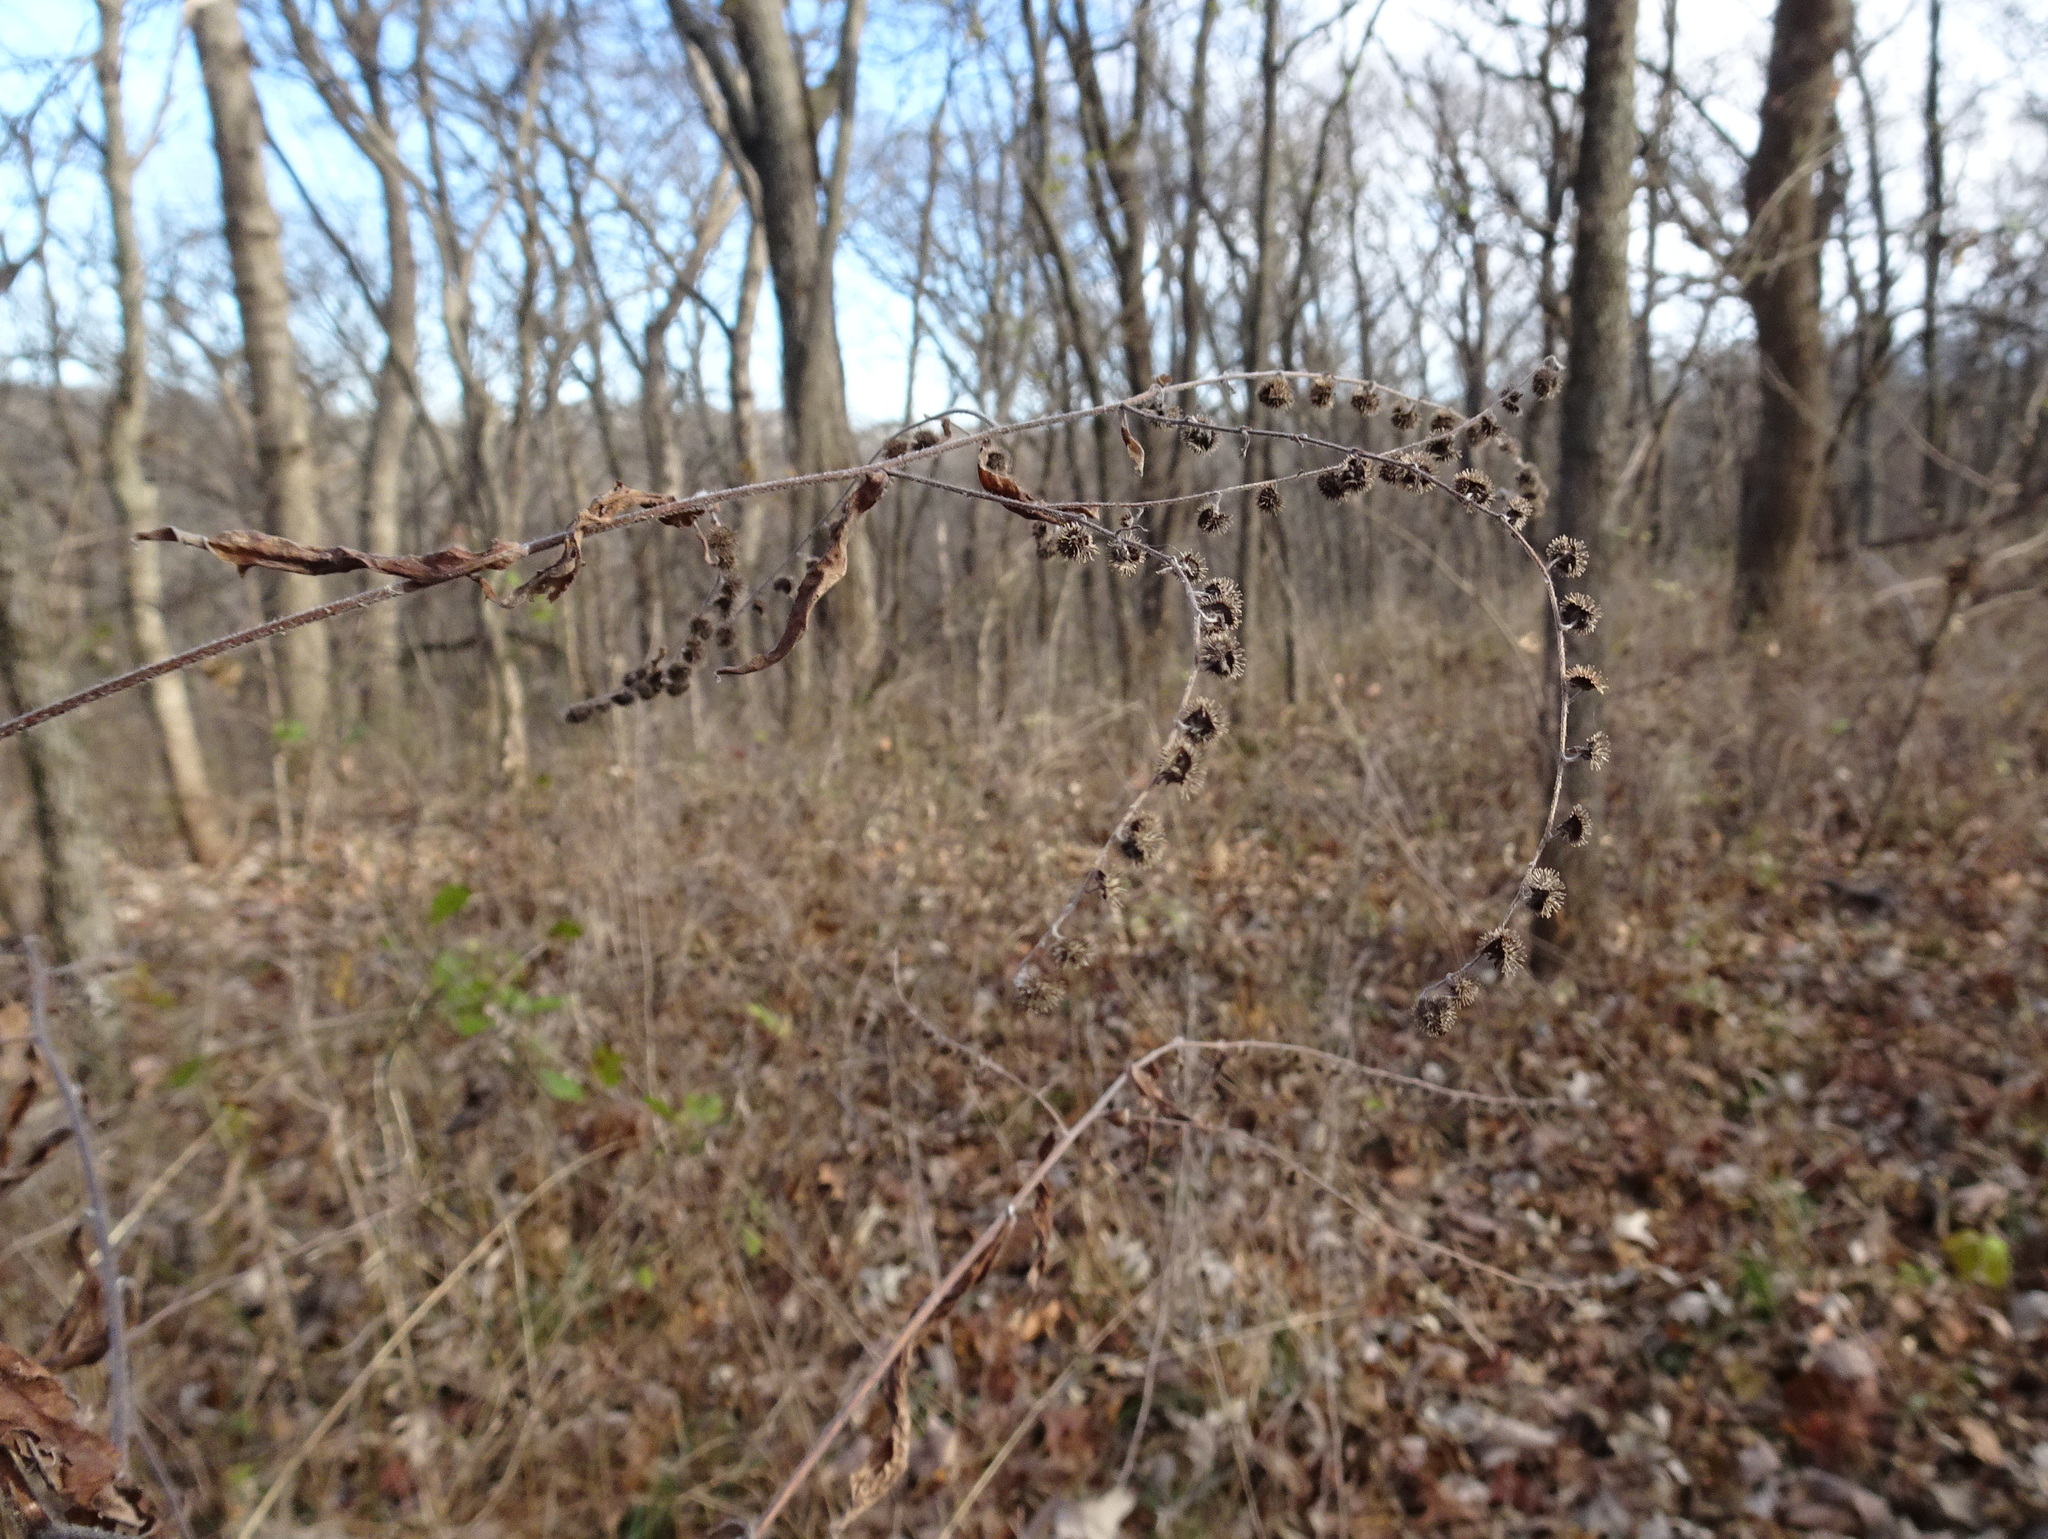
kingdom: Plantae
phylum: Tracheophyta
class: Magnoliopsida
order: Boraginales
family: Boraginaceae
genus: Hackelia
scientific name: Hackelia virginiana
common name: Beggar's-lice
